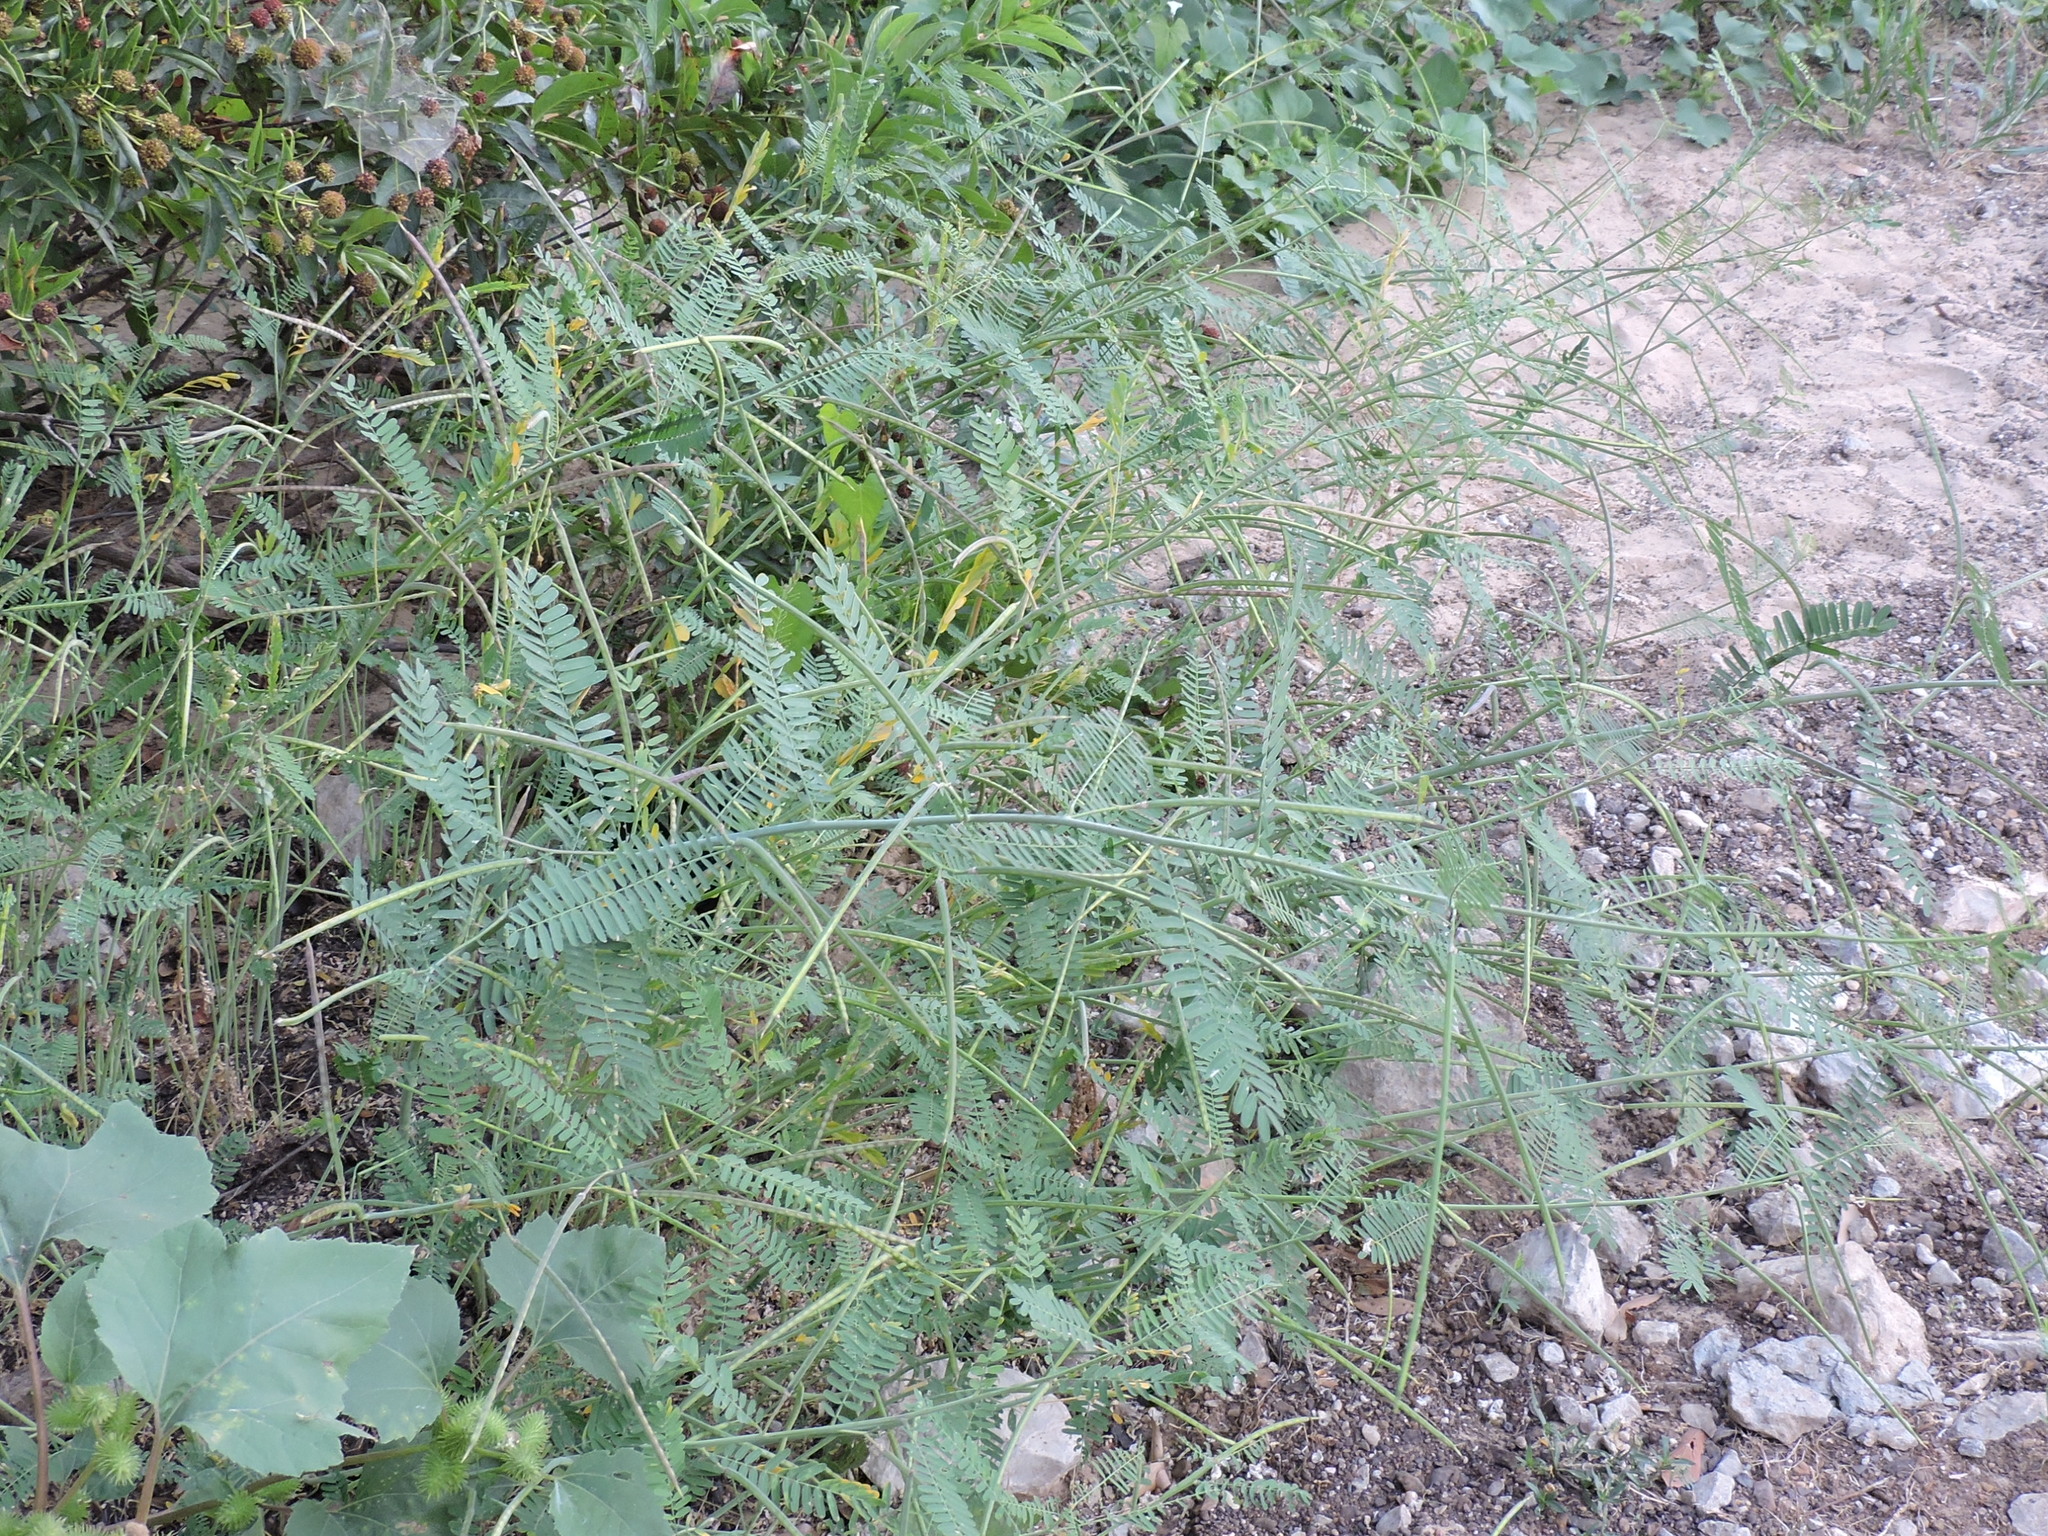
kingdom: Plantae
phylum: Tracheophyta
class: Magnoliopsida
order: Fabales
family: Fabaceae
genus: Sesbania
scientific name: Sesbania herbacea
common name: Bigpod sesbania
